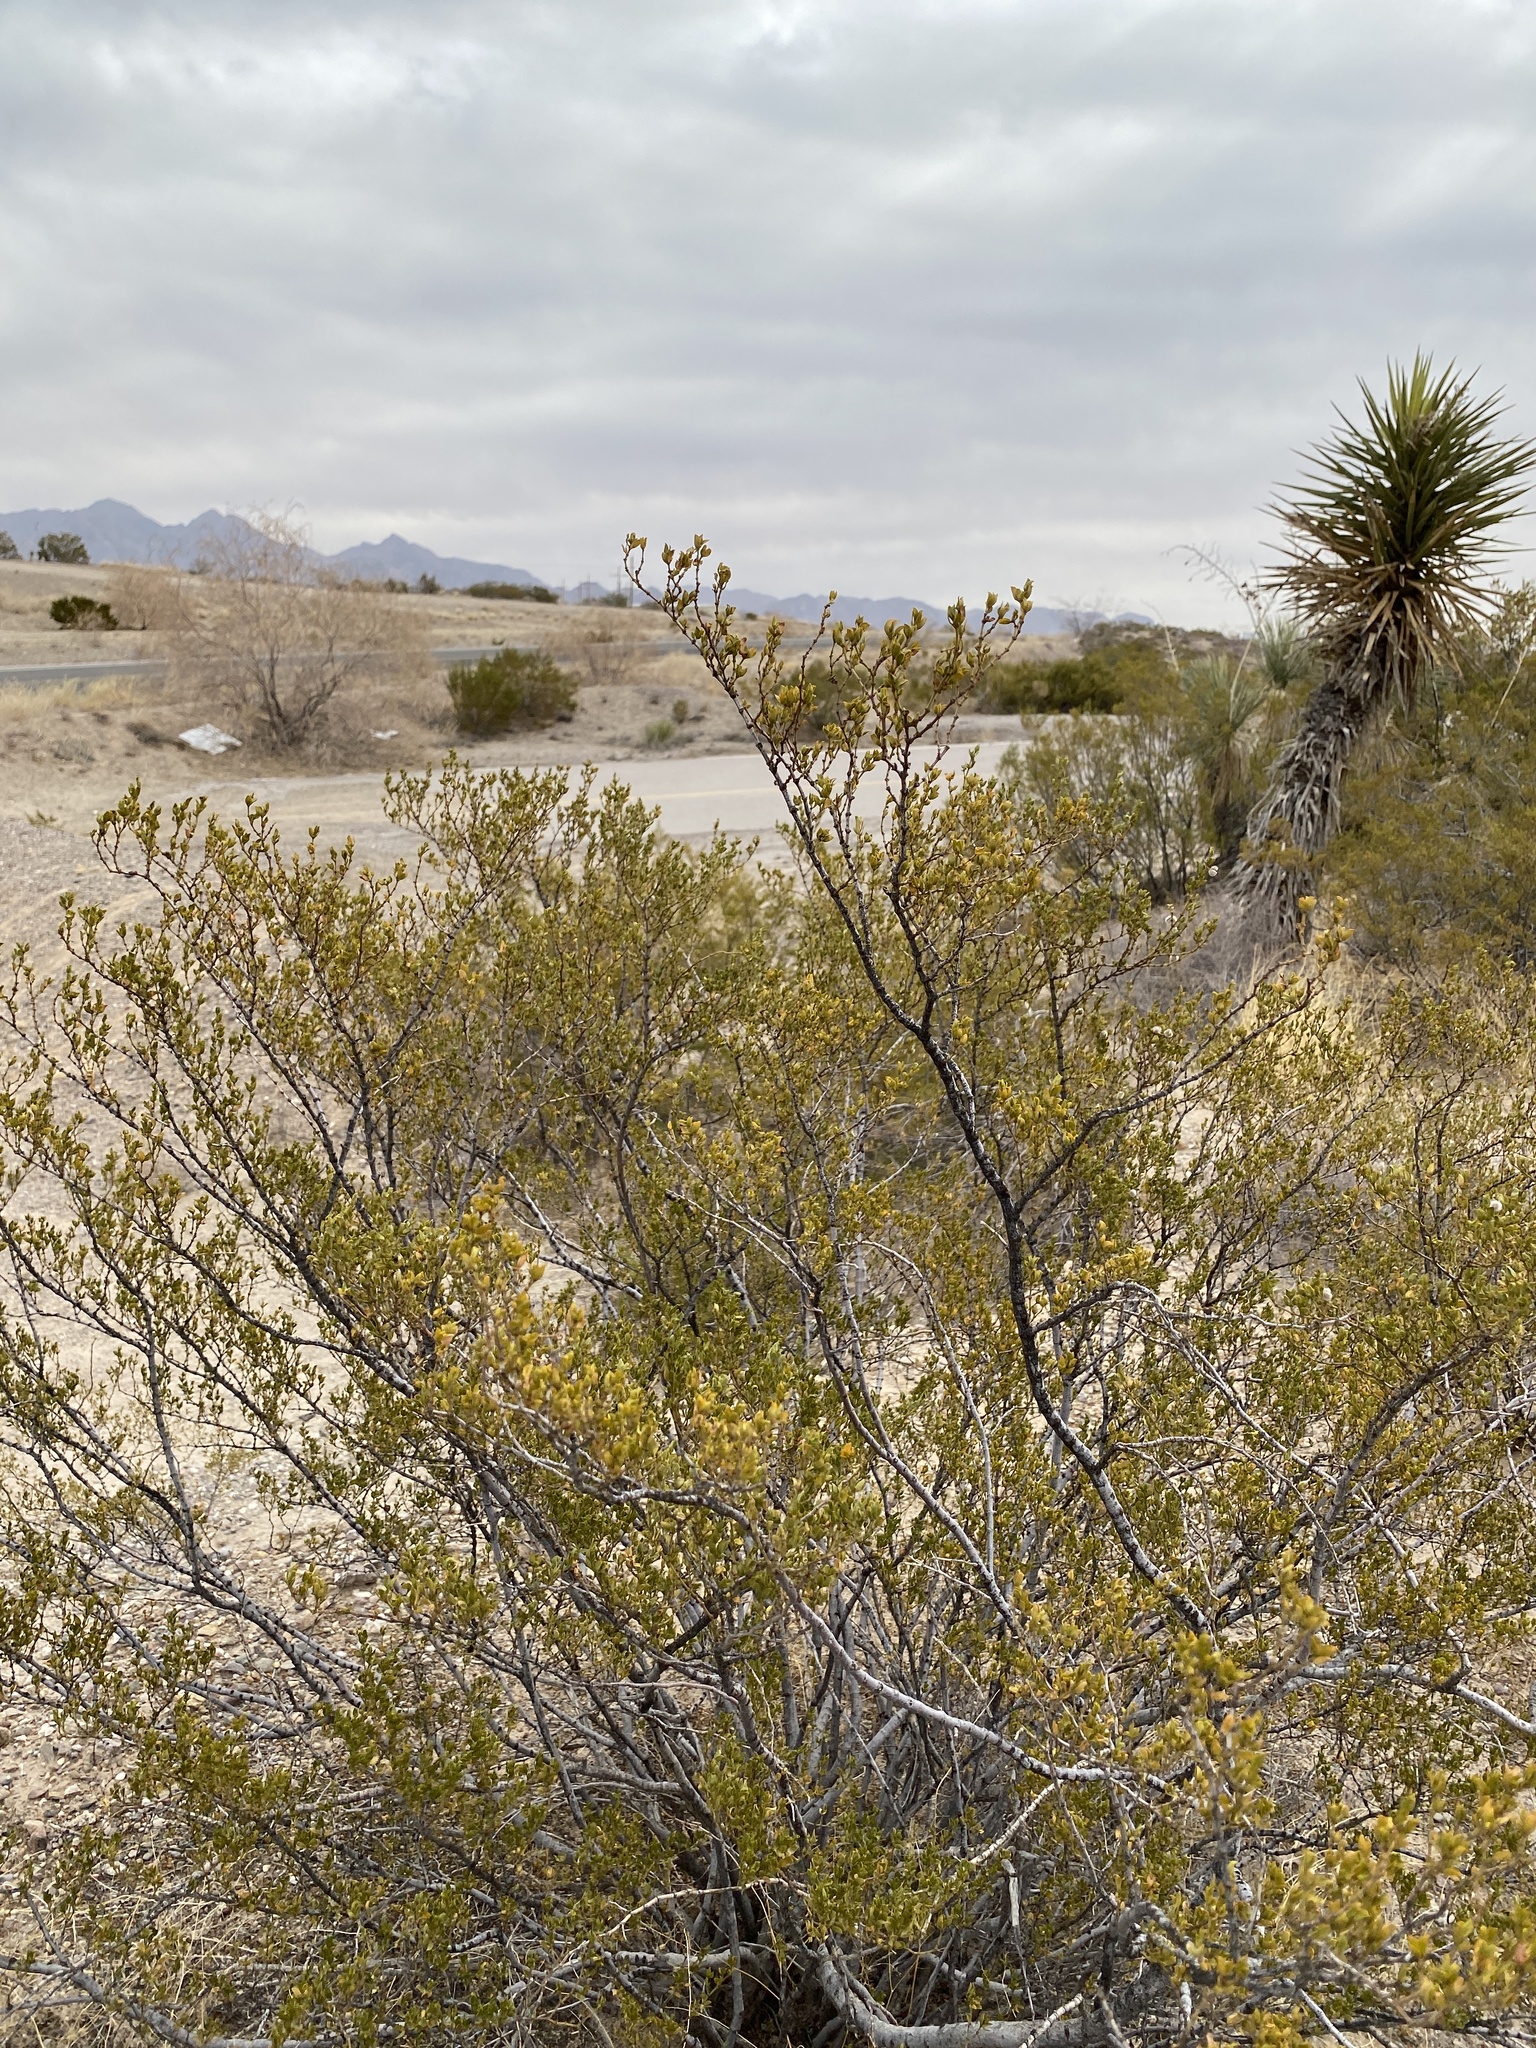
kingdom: Plantae
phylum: Tracheophyta
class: Magnoliopsida
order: Zygophyllales
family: Zygophyllaceae
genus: Larrea
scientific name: Larrea tridentata
